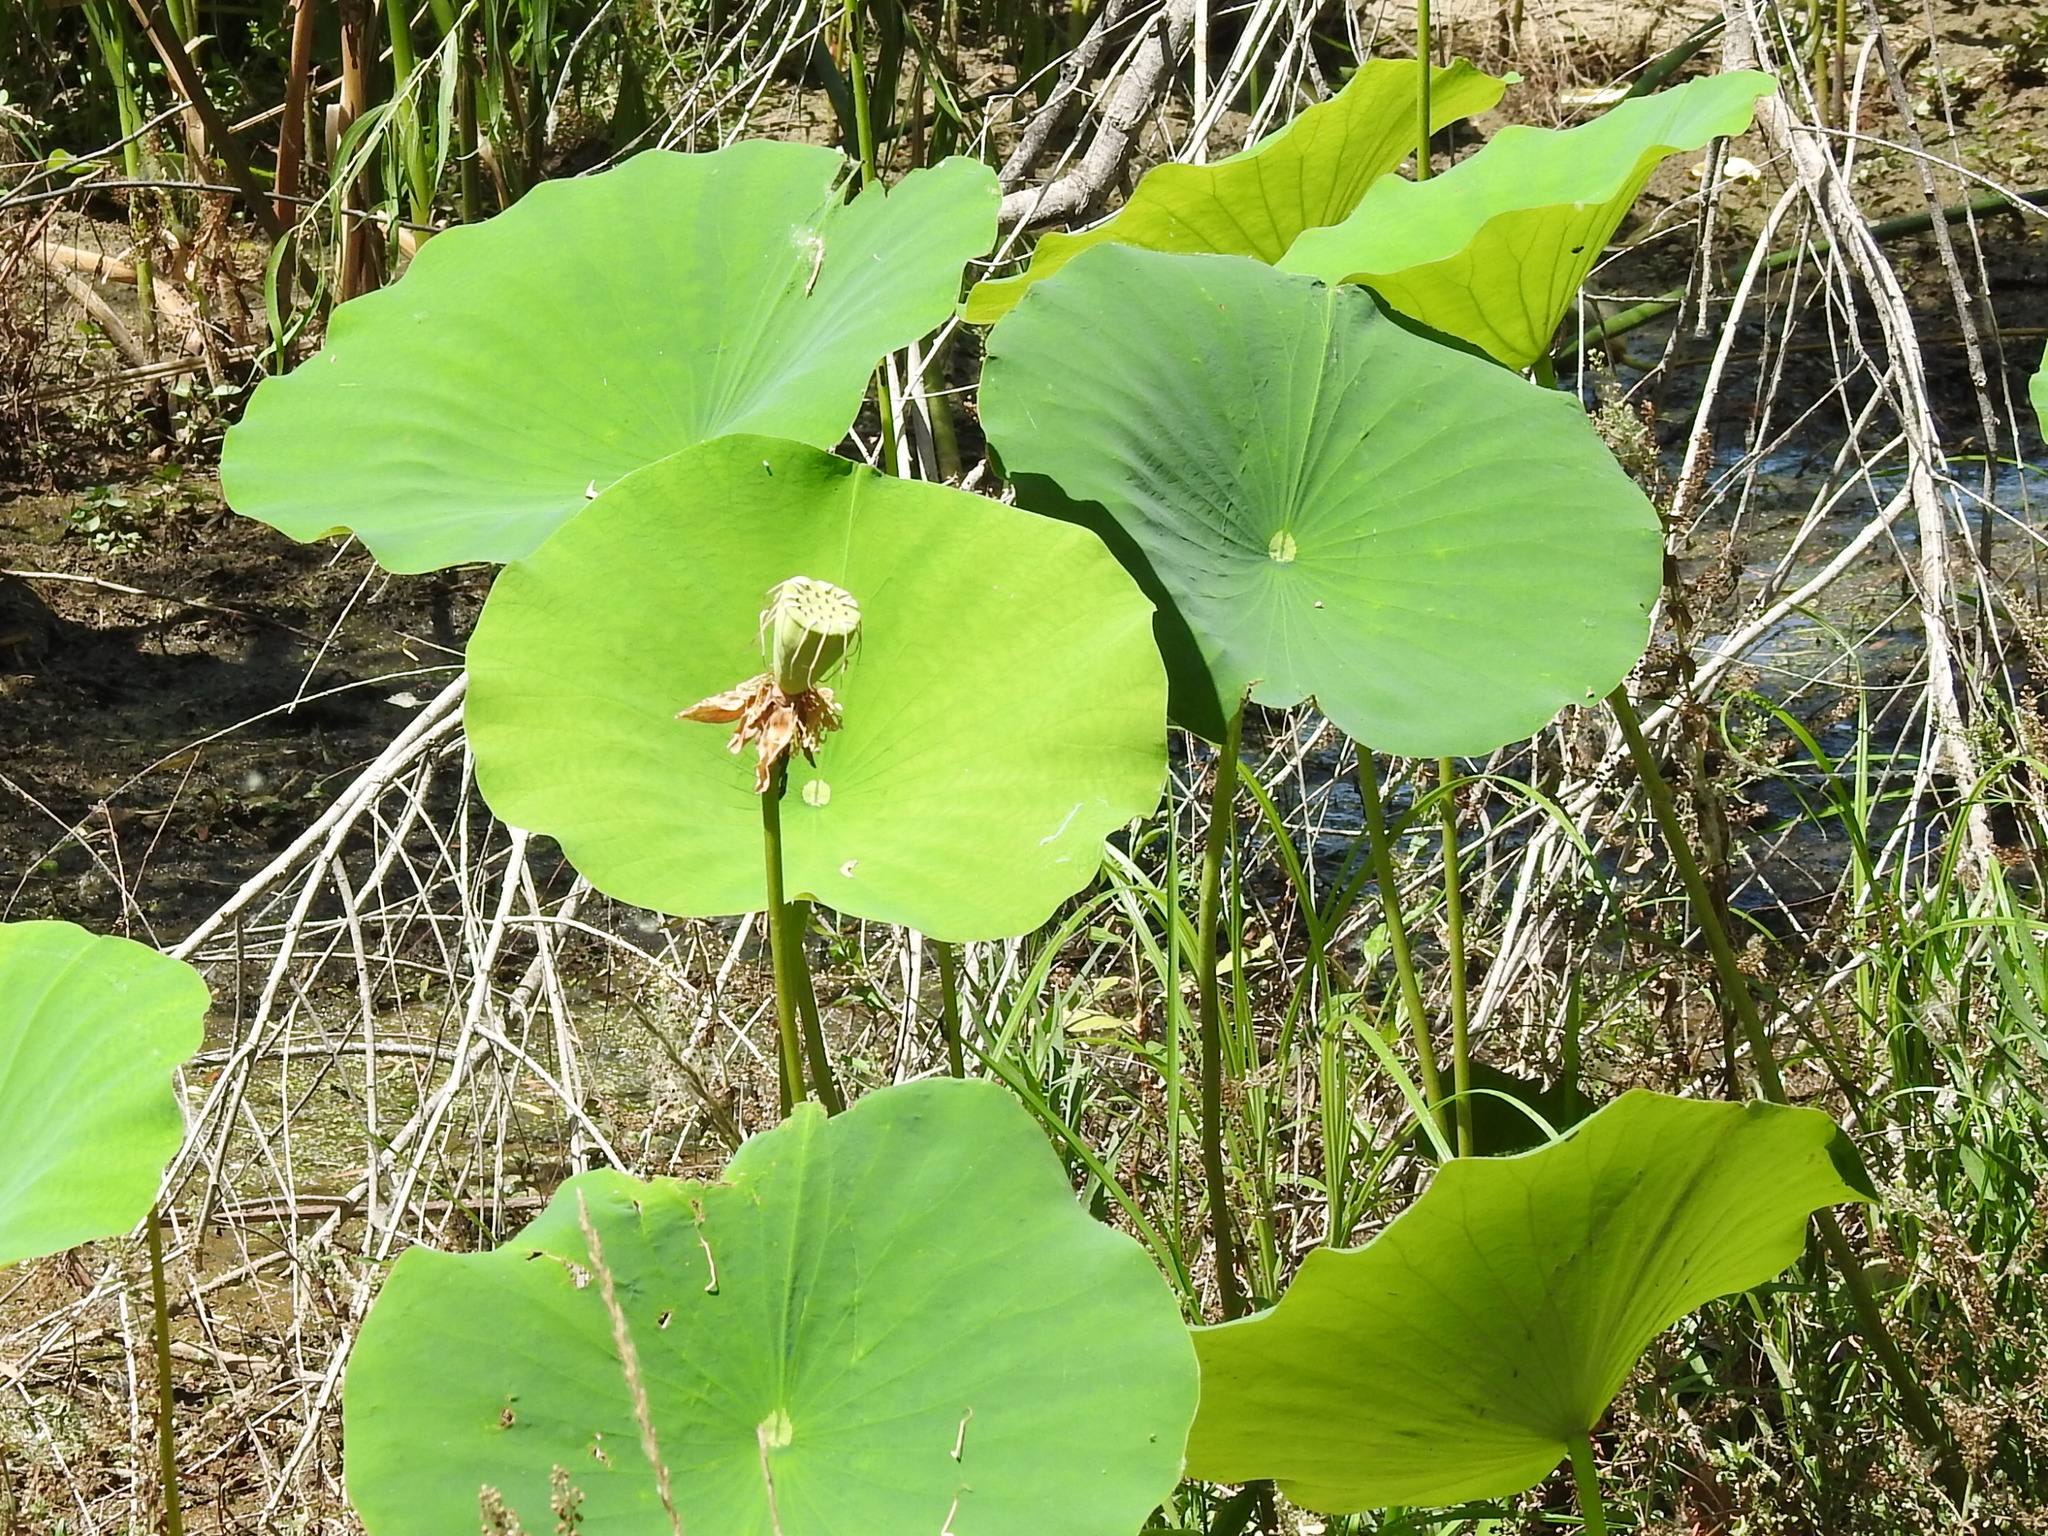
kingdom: Plantae
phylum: Tracheophyta
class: Magnoliopsida
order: Proteales
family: Nelumbonaceae
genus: Nelumbo
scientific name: Nelumbo lutea
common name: American lotus
